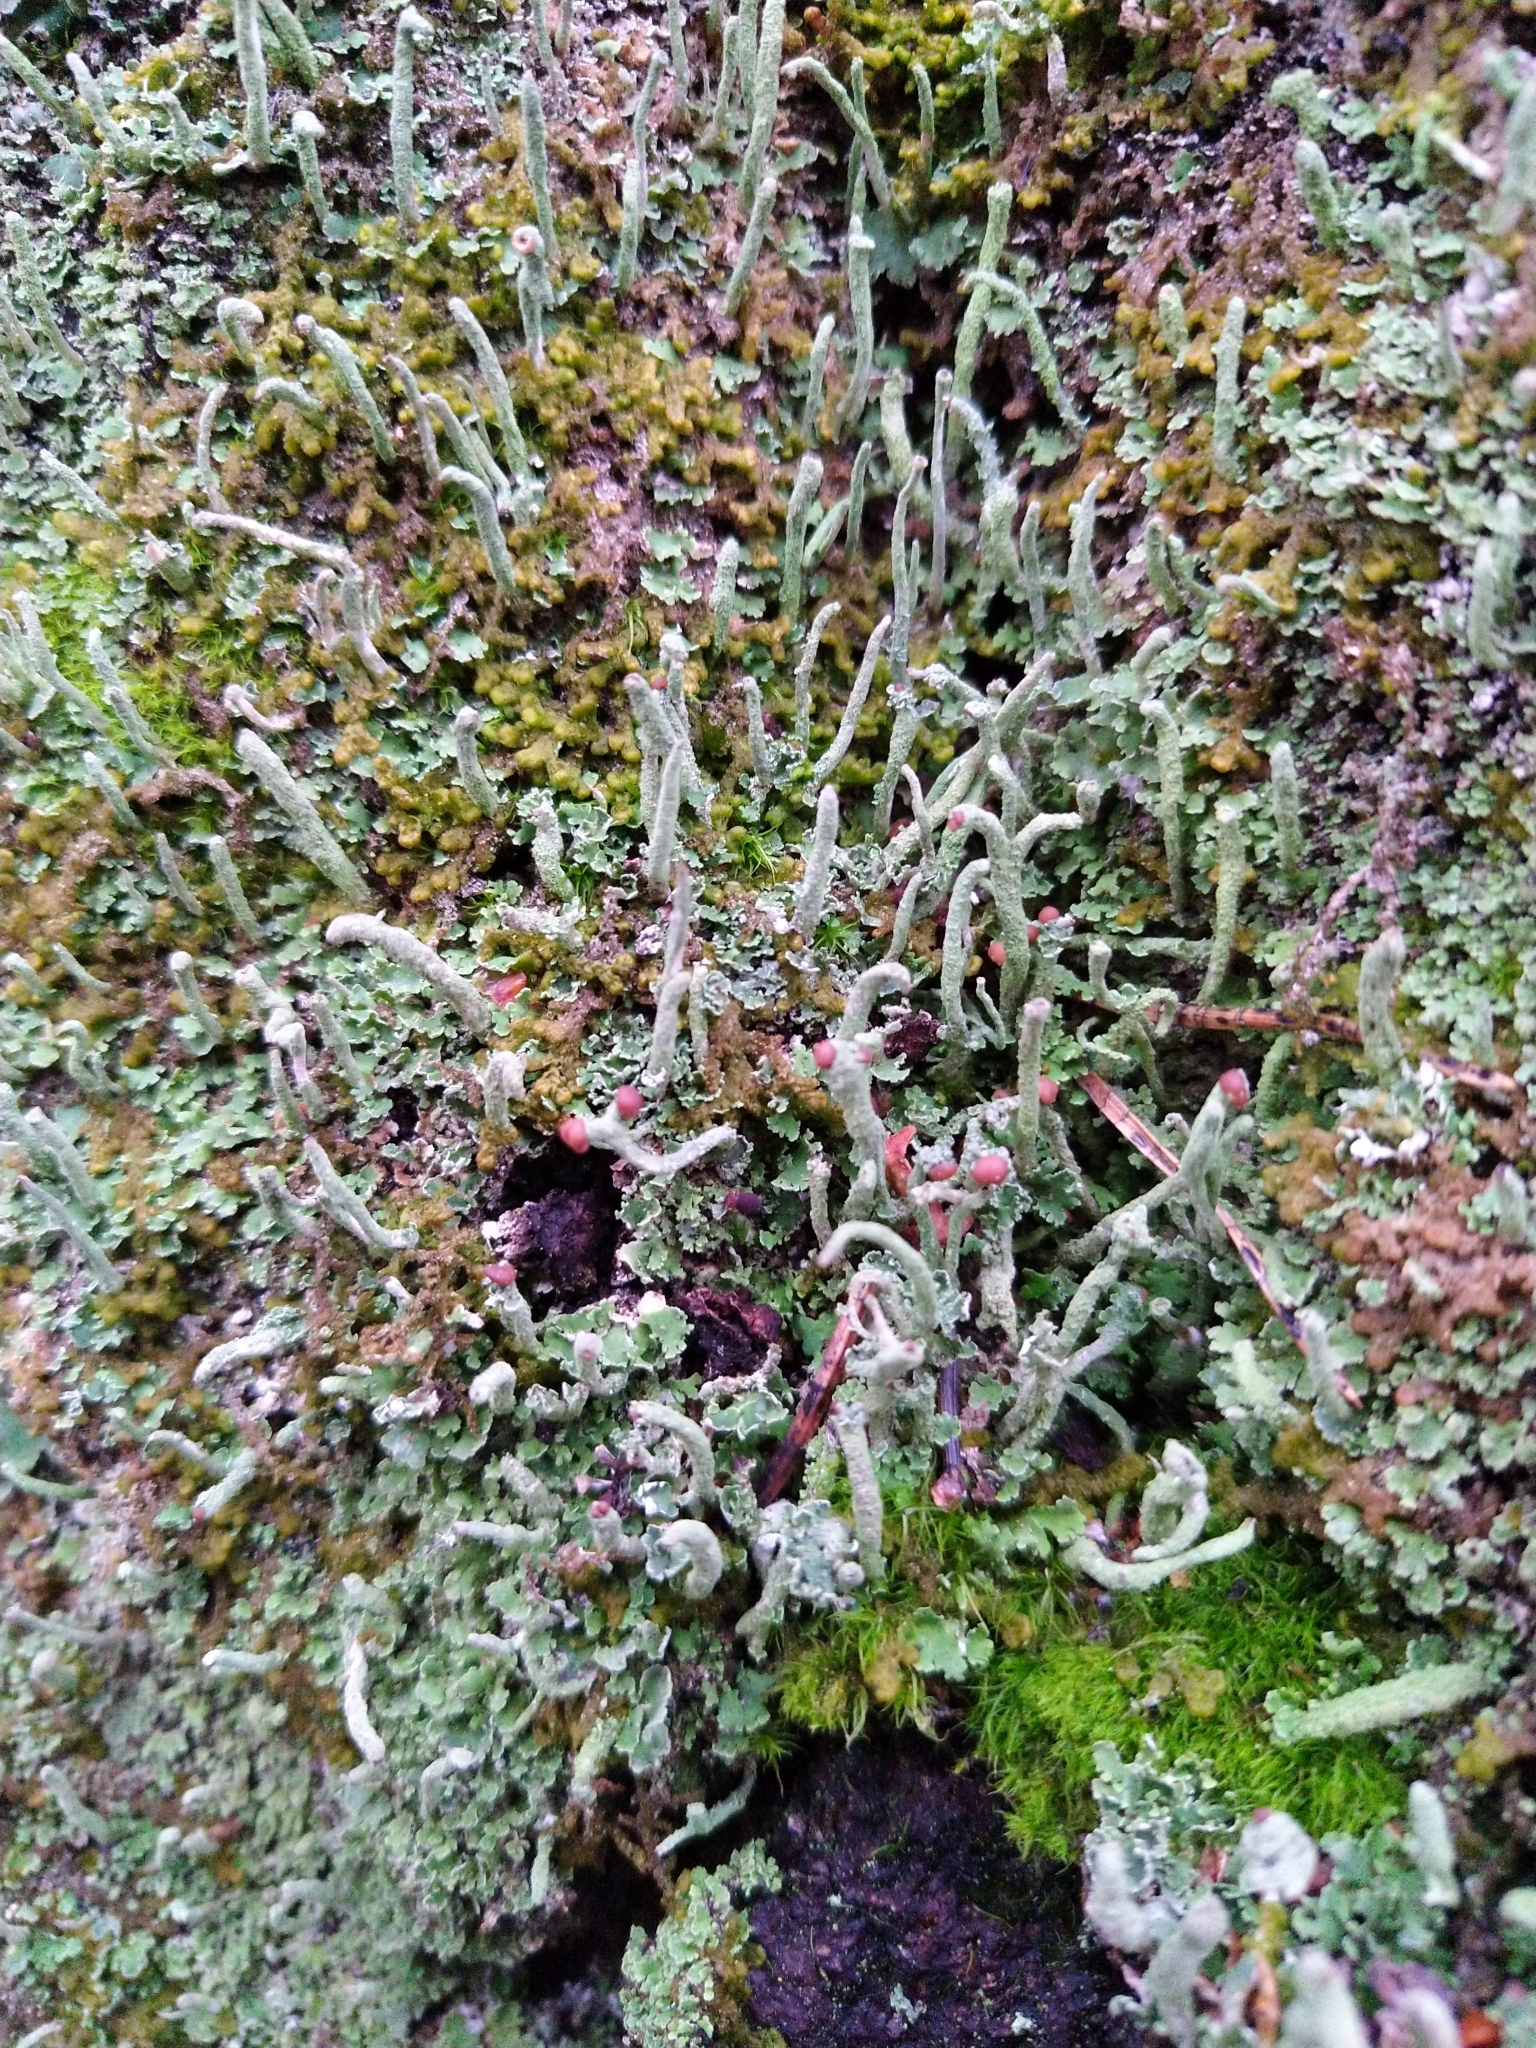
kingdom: Fungi
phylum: Ascomycota
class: Lecanoromycetes
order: Lecanorales
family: Cladoniaceae
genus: Cladonia
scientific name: Cladonia ochrochlora
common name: Smooth-footed powderhorn
